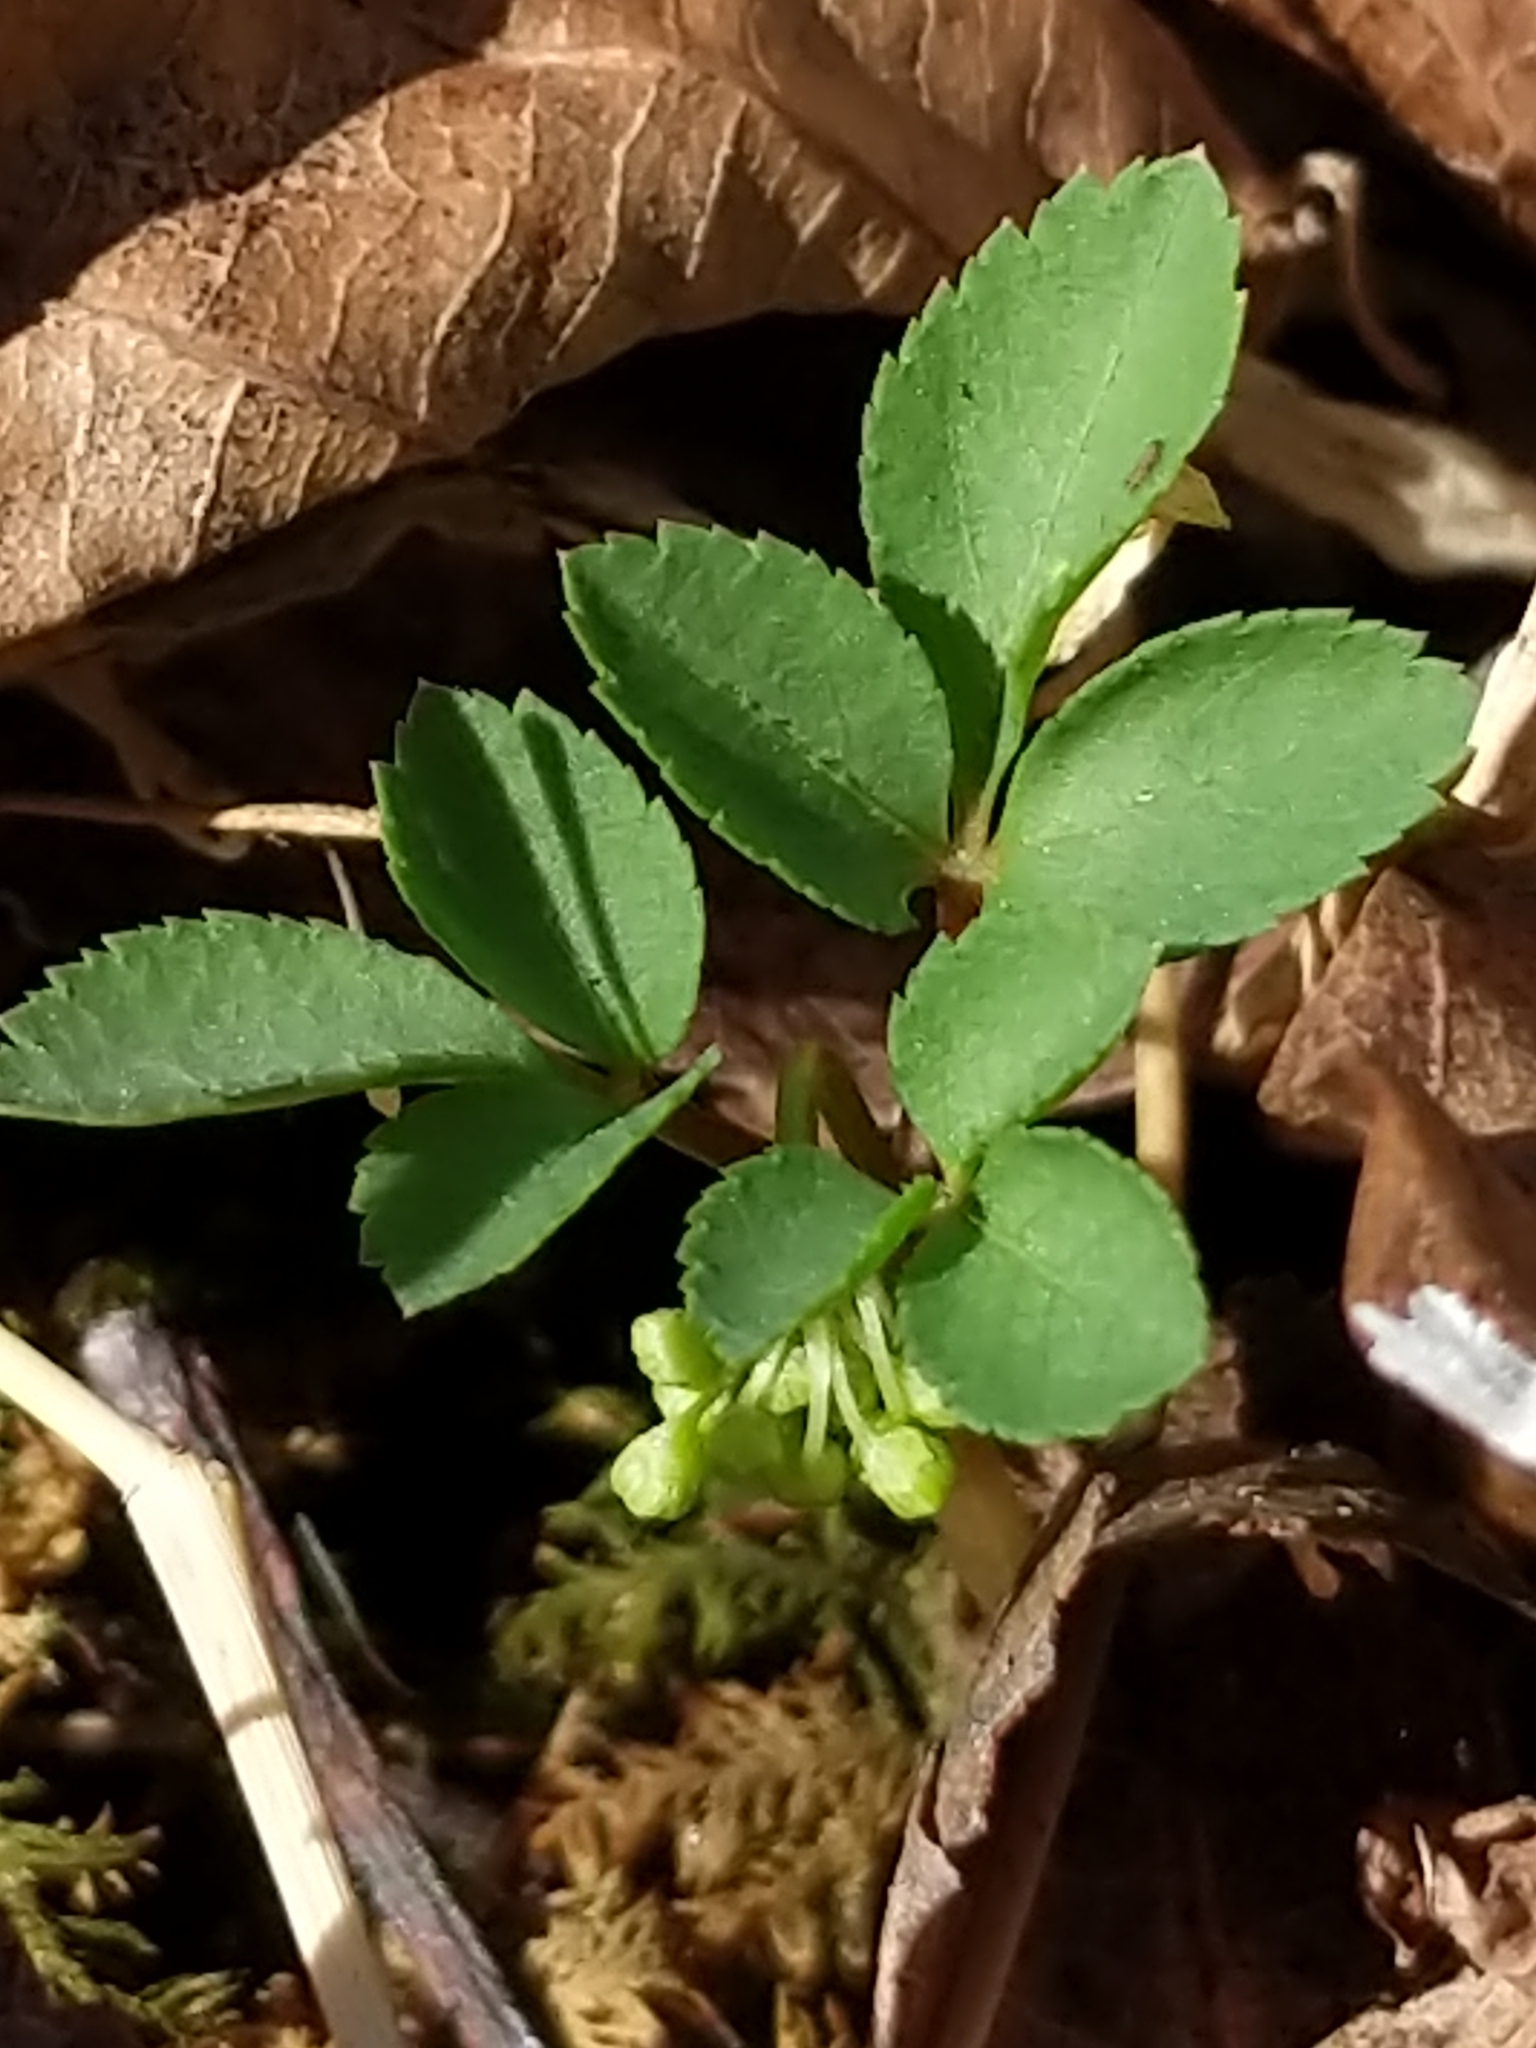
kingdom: Plantae
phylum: Tracheophyta
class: Magnoliopsida
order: Apiales
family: Araliaceae
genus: Panax
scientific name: Panax trifolius
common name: Dwarf ginseng
